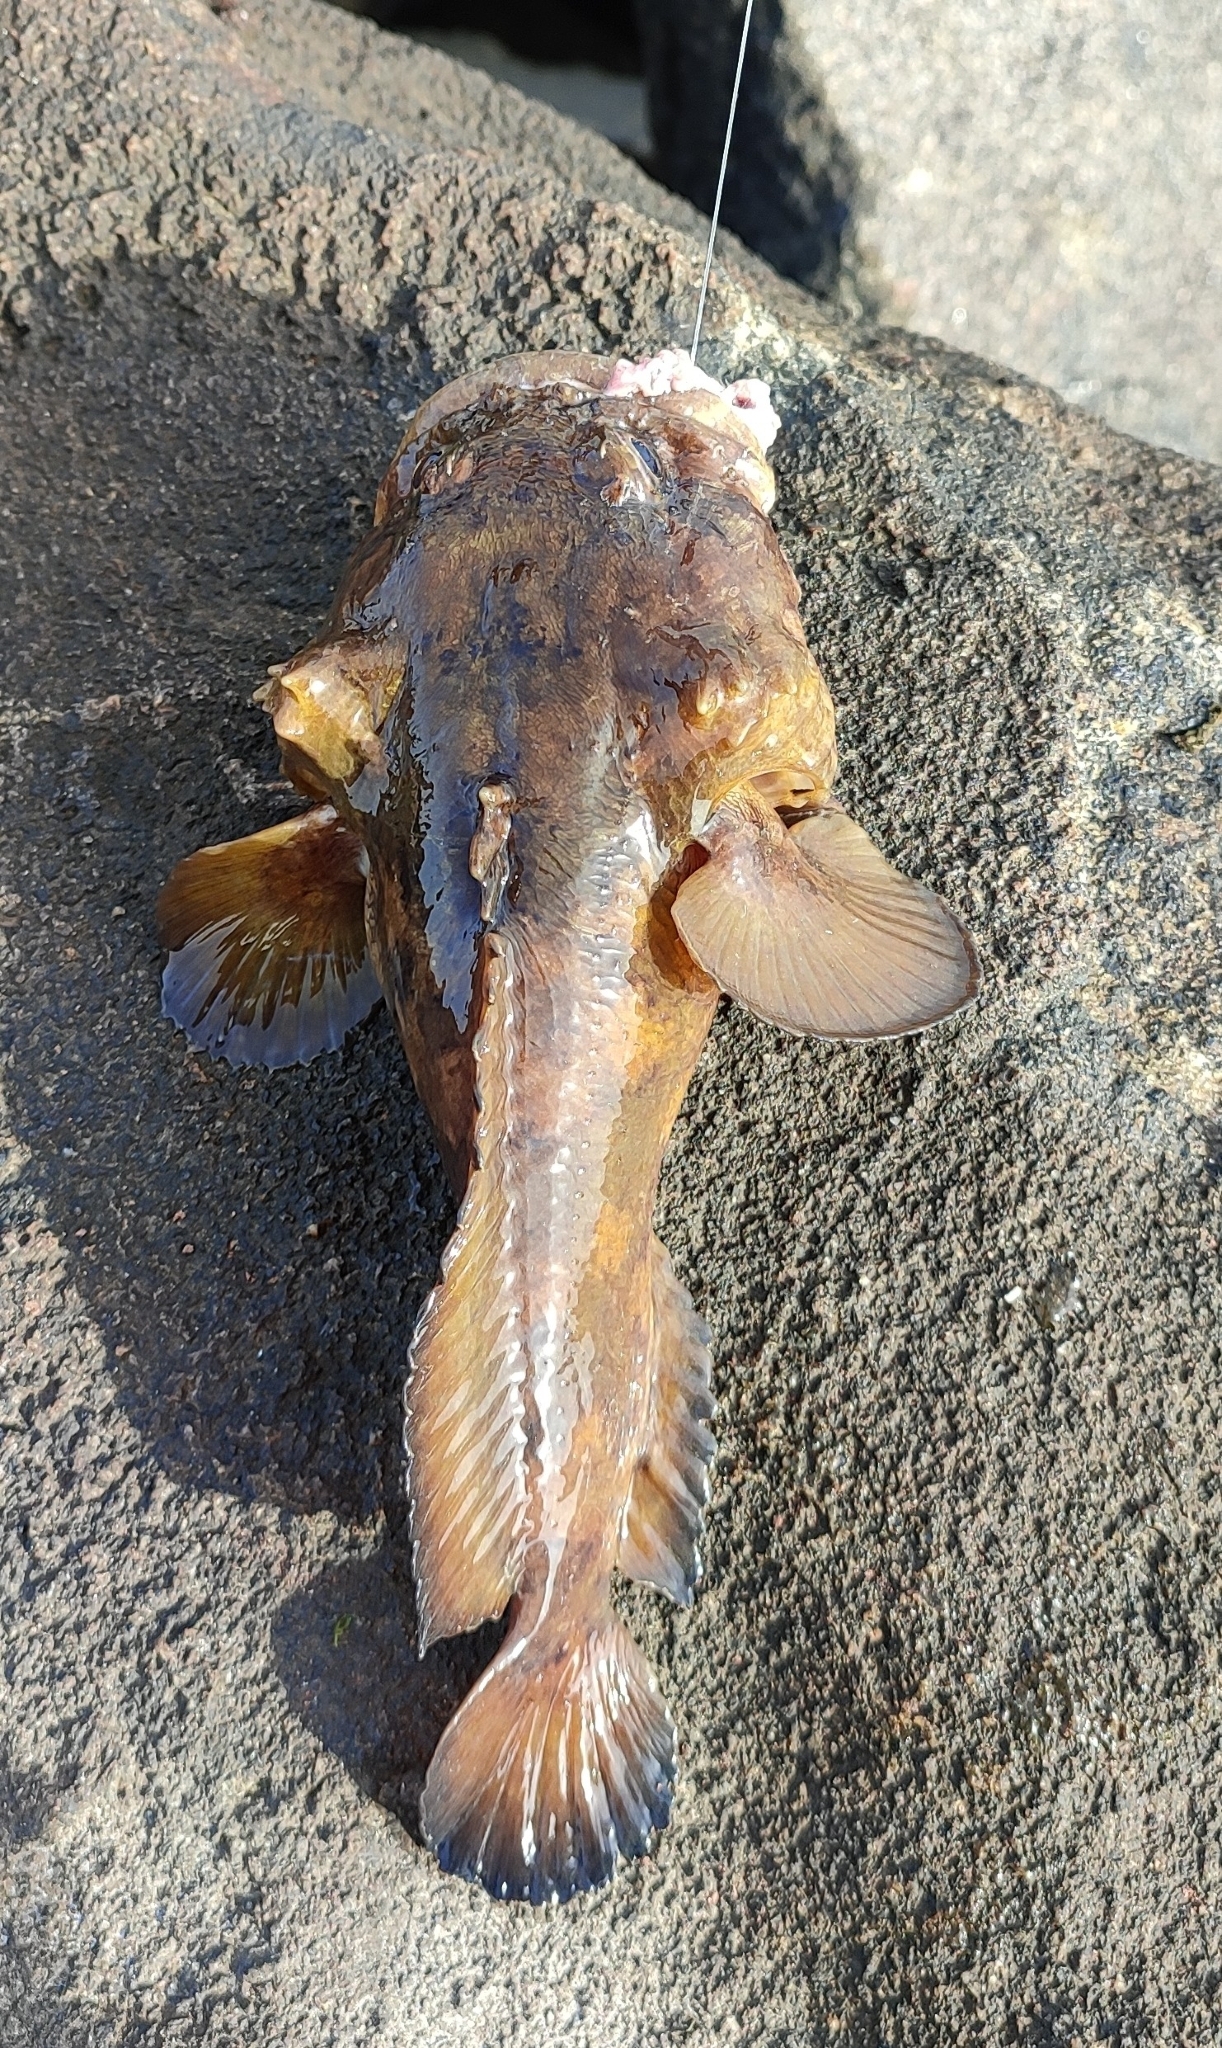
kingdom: Animalia
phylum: Chordata
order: Batrachoidiformes
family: Batrachoididae
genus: Colletteichthys
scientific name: Colletteichthys dussumieri
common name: Flat toadfish
